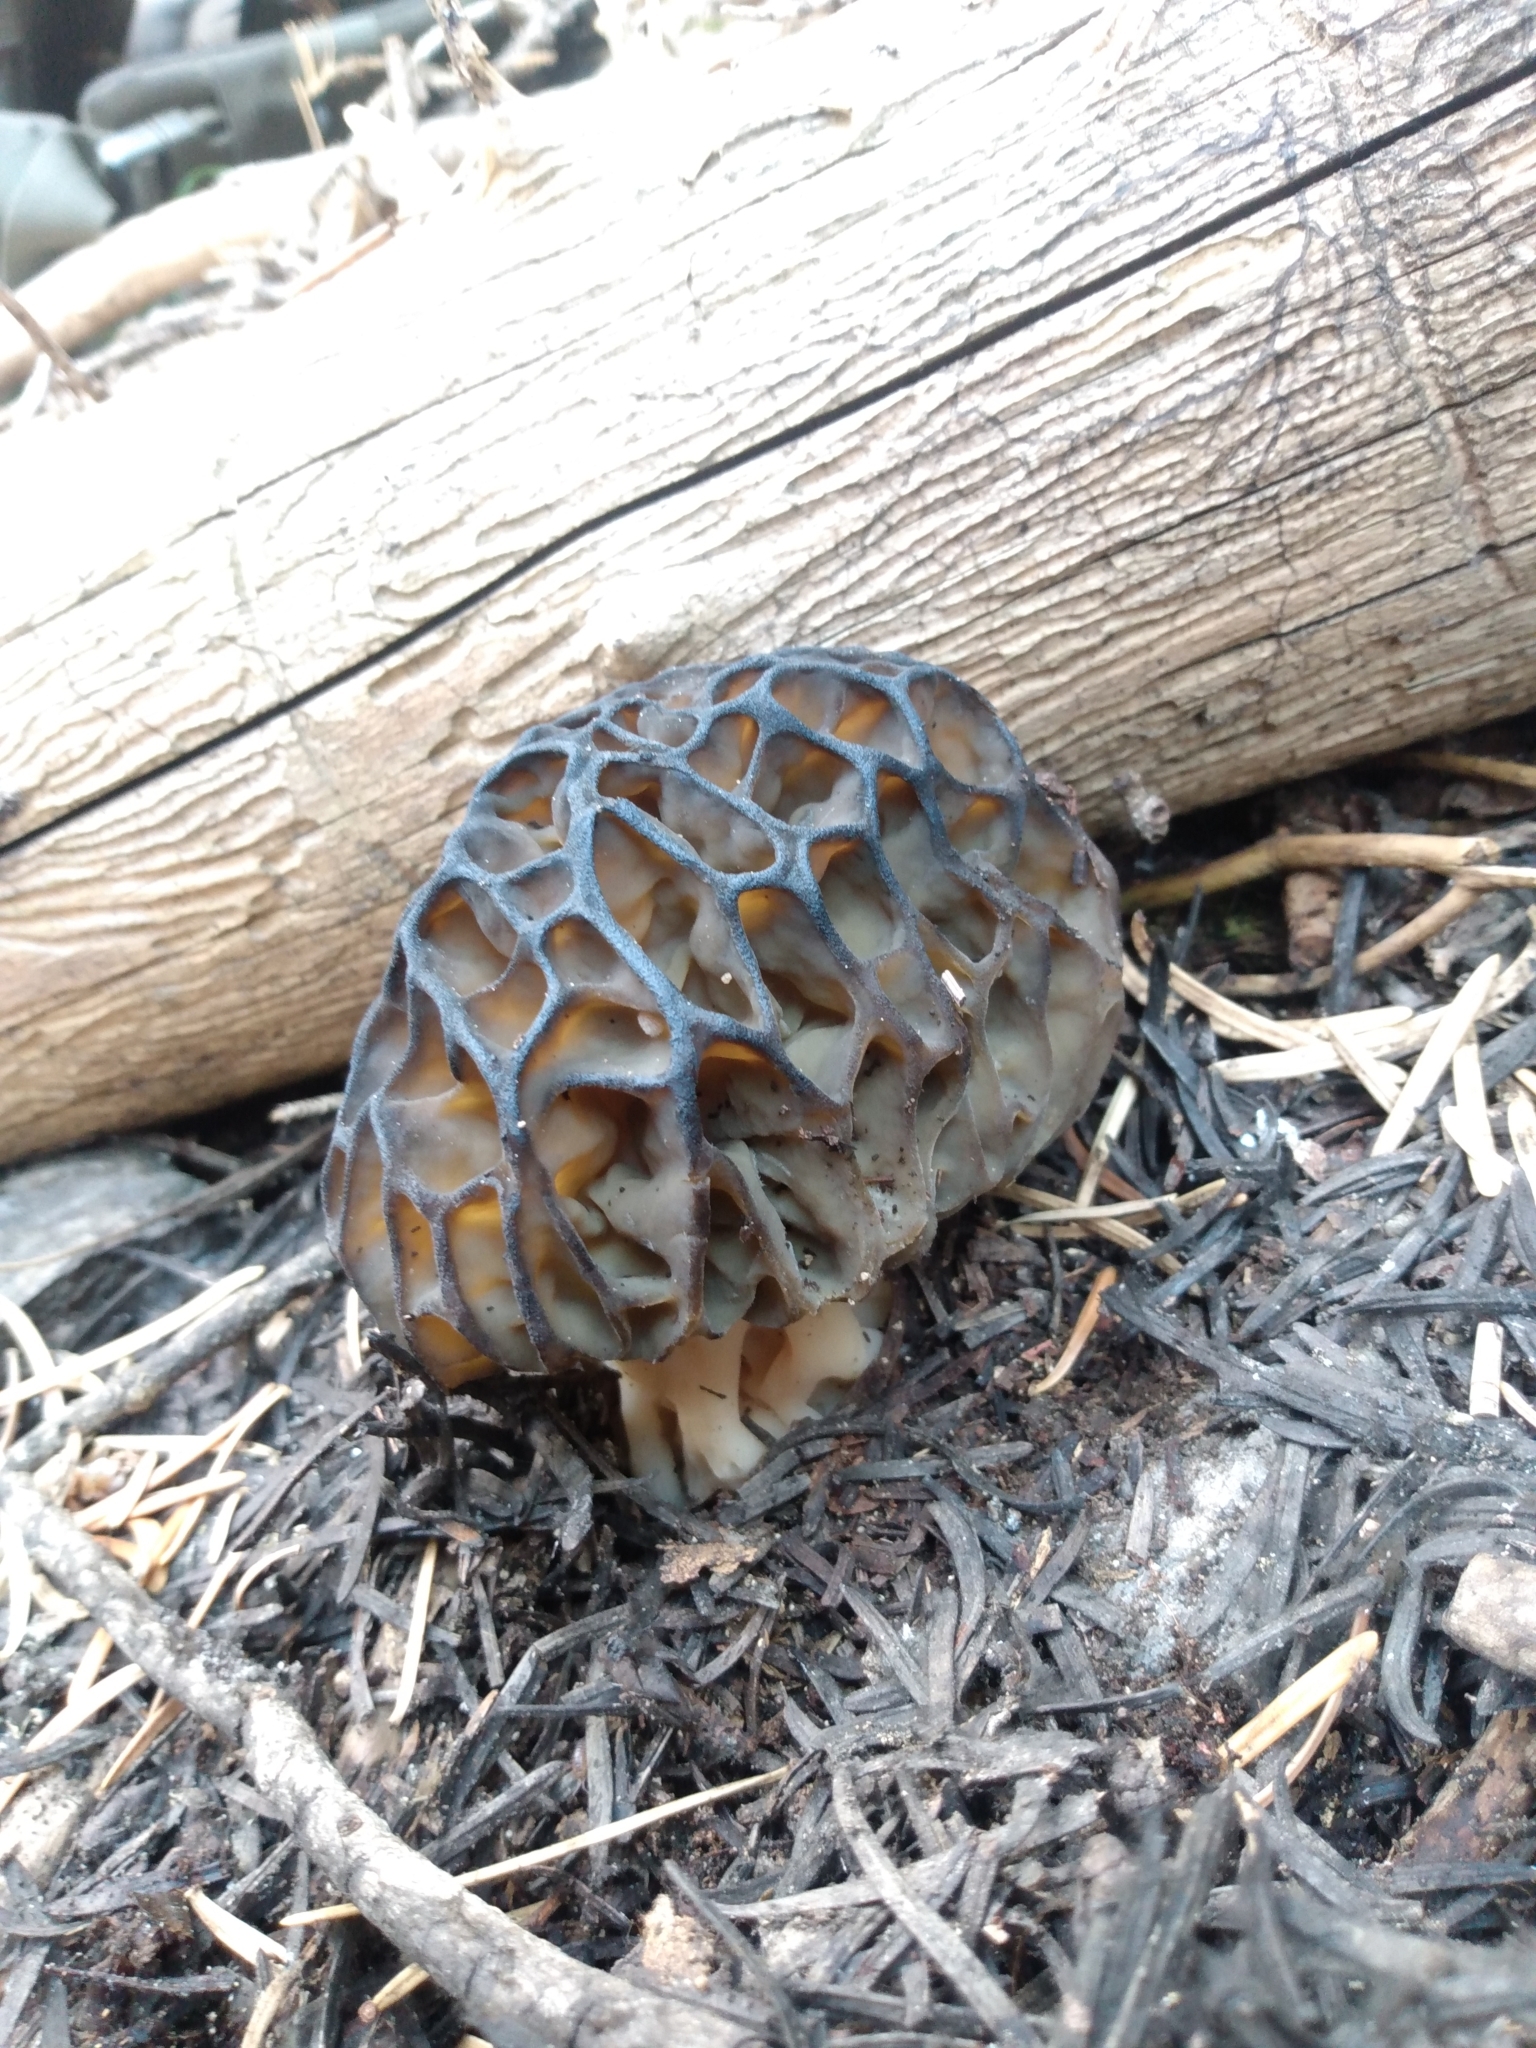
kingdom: Fungi
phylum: Ascomycota
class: Pezizomycetes
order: Pezizales
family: Morchellaceae
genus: Morchella
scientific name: Morchella snyderi
